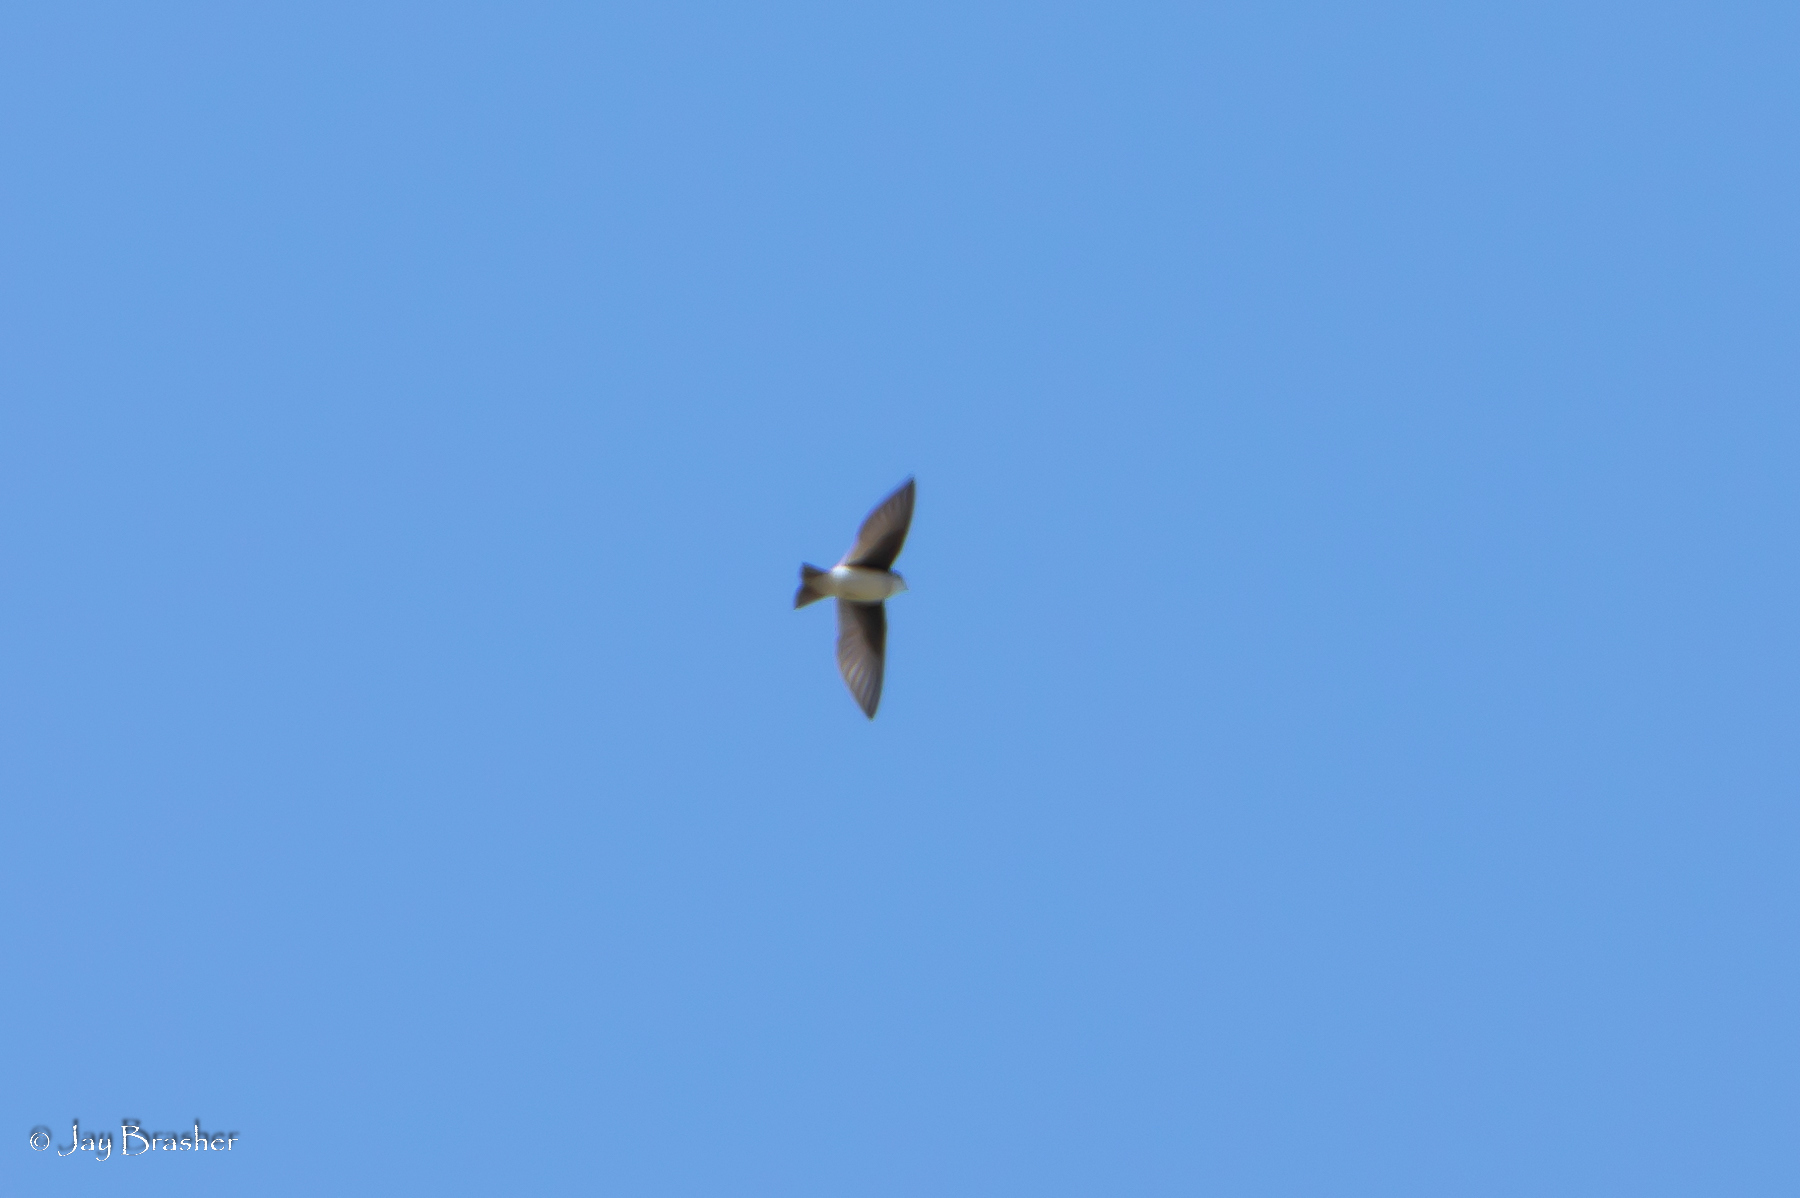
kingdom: Animalia
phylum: Chordata
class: Aves
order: Passeriformes
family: Hirundinidae
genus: Tachycineta
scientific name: Tachycineta bicolor
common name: Tree swallow
